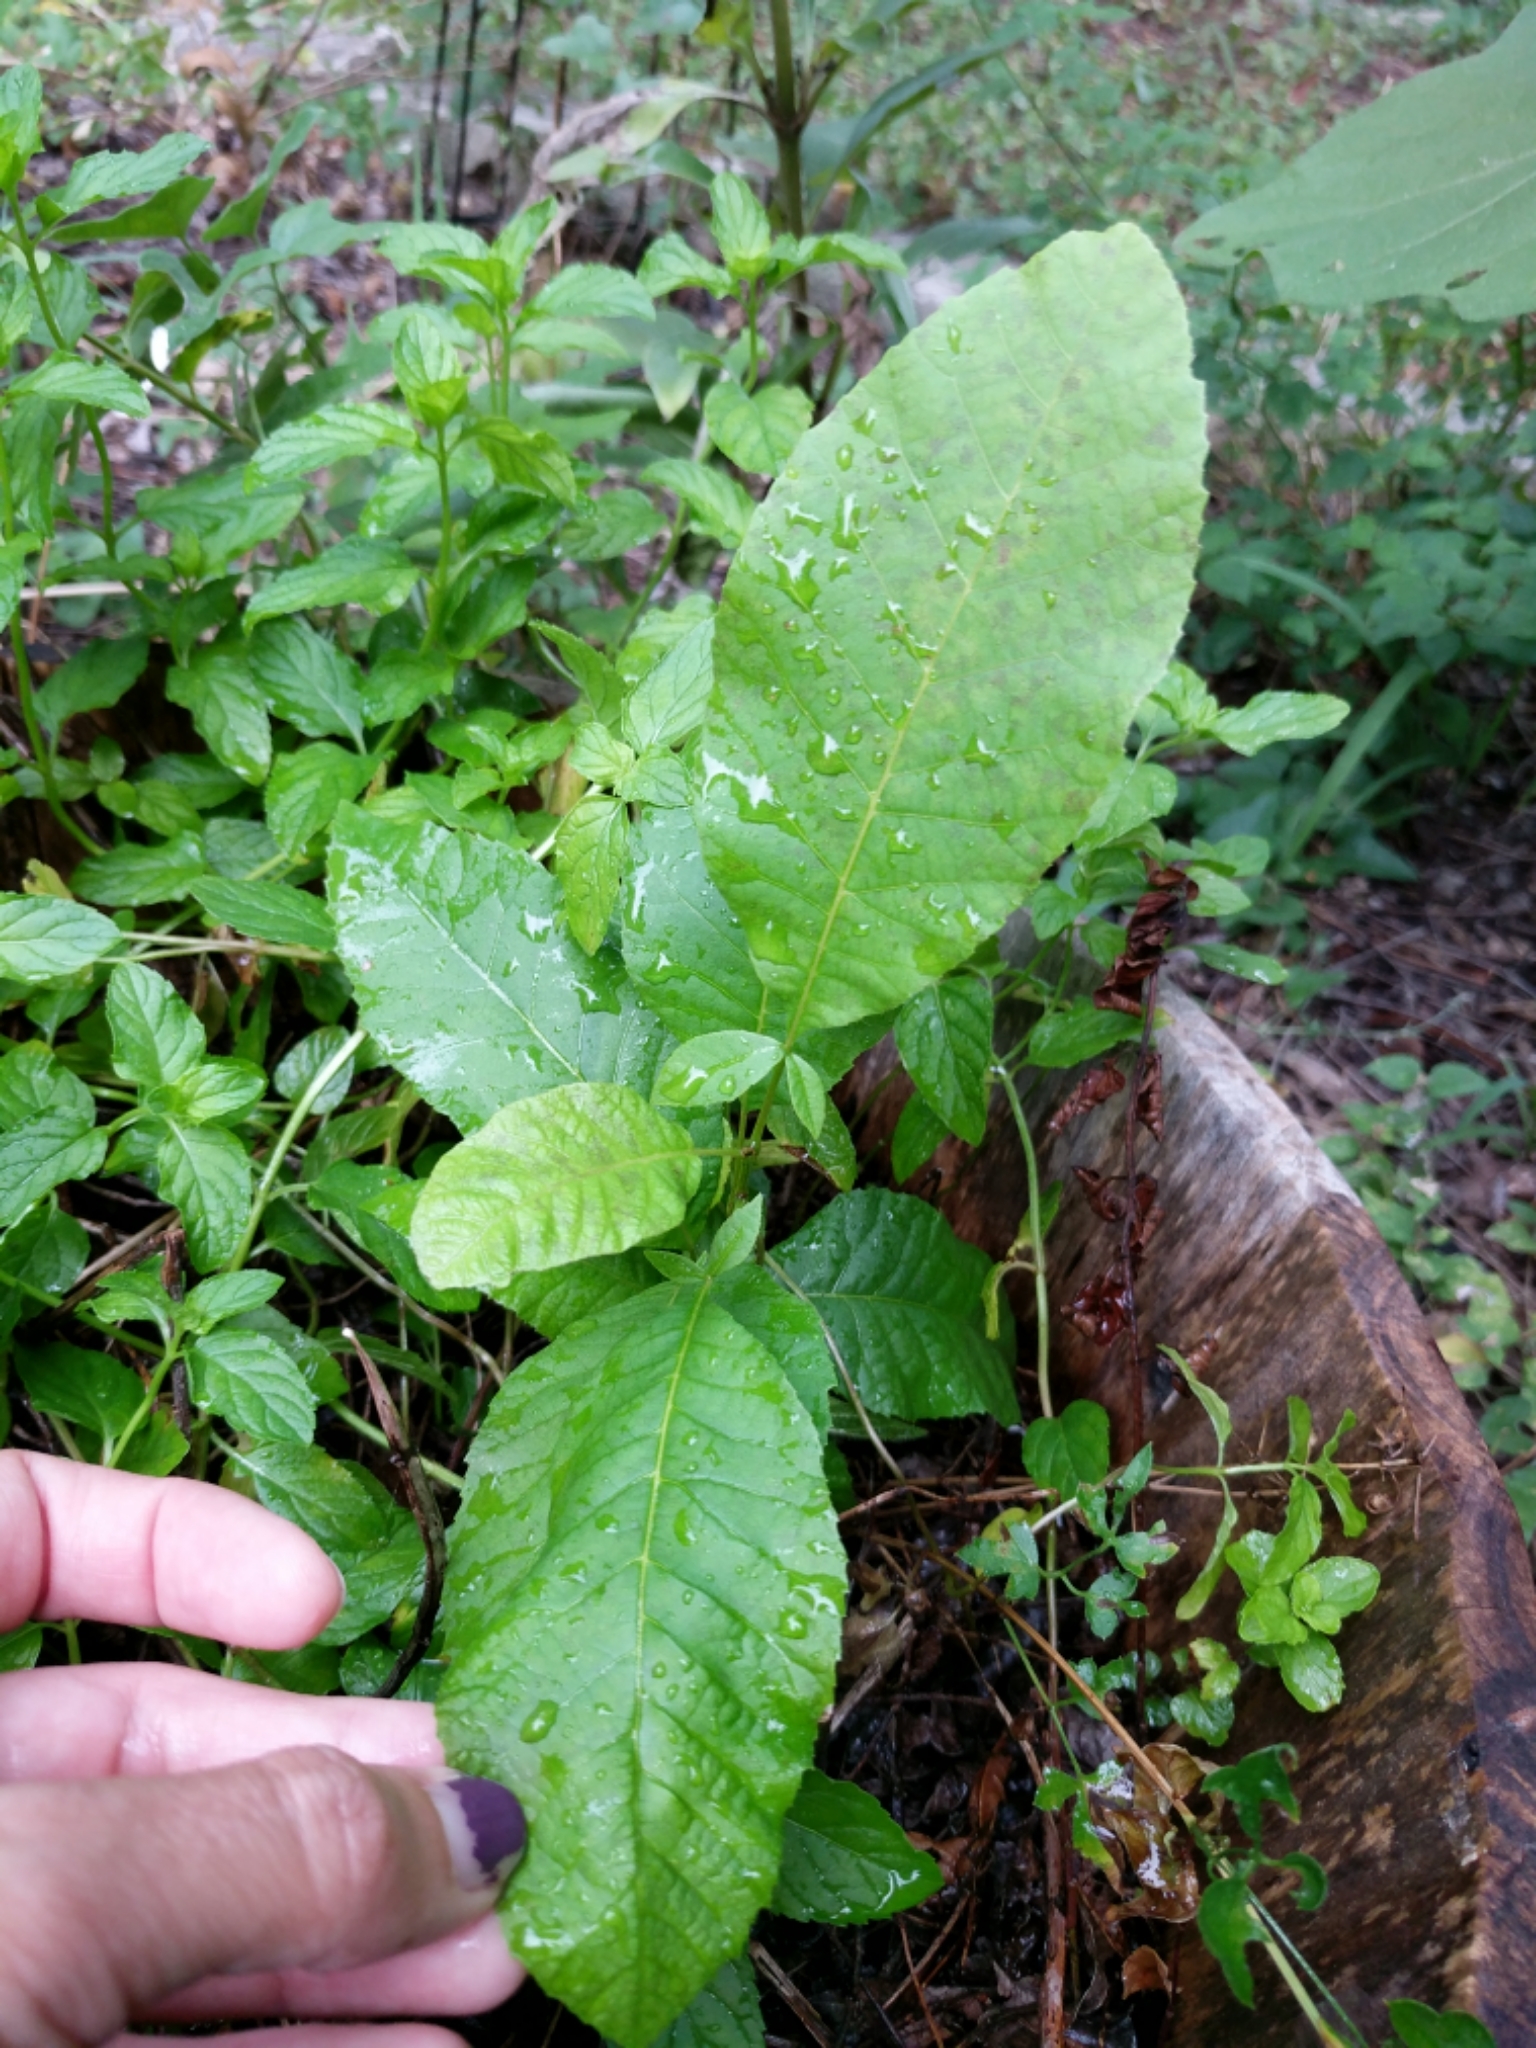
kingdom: Plantae
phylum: Tracheophyta
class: Magnoliopsida
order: Fagales
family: Juglandaceae
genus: Carya
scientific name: Carya illinoinensis
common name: Pecan
